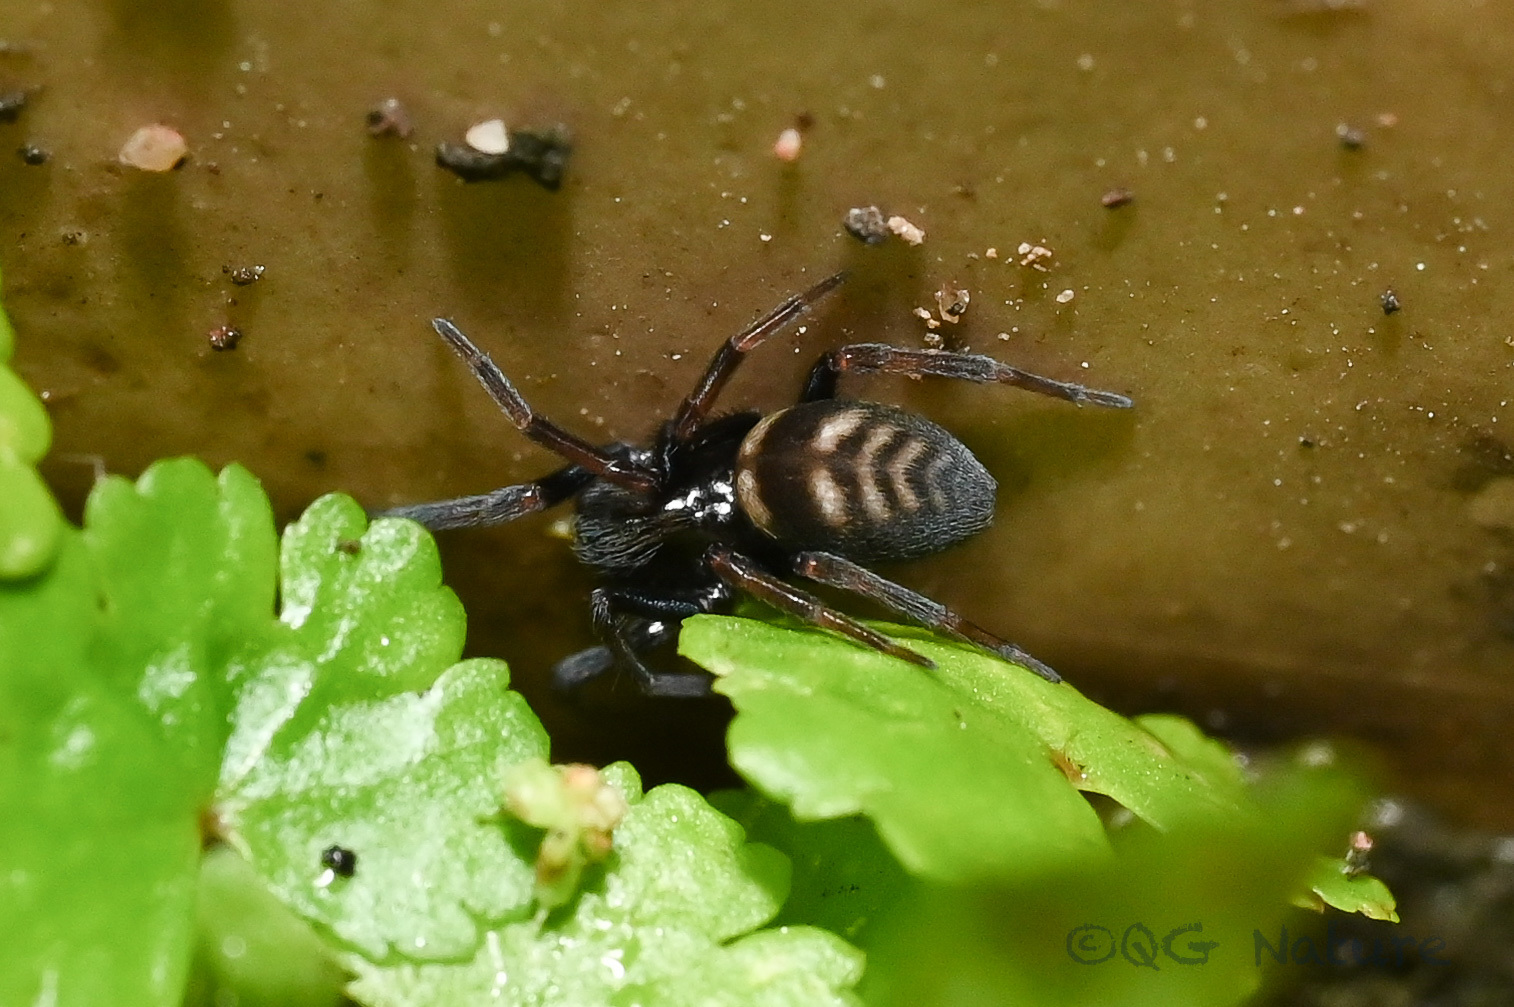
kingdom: Animalia
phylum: Arthropoda
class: Arachnida
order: Araneae
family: Titanoecidae
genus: Nurscia
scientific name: Nurscia albofasciata
